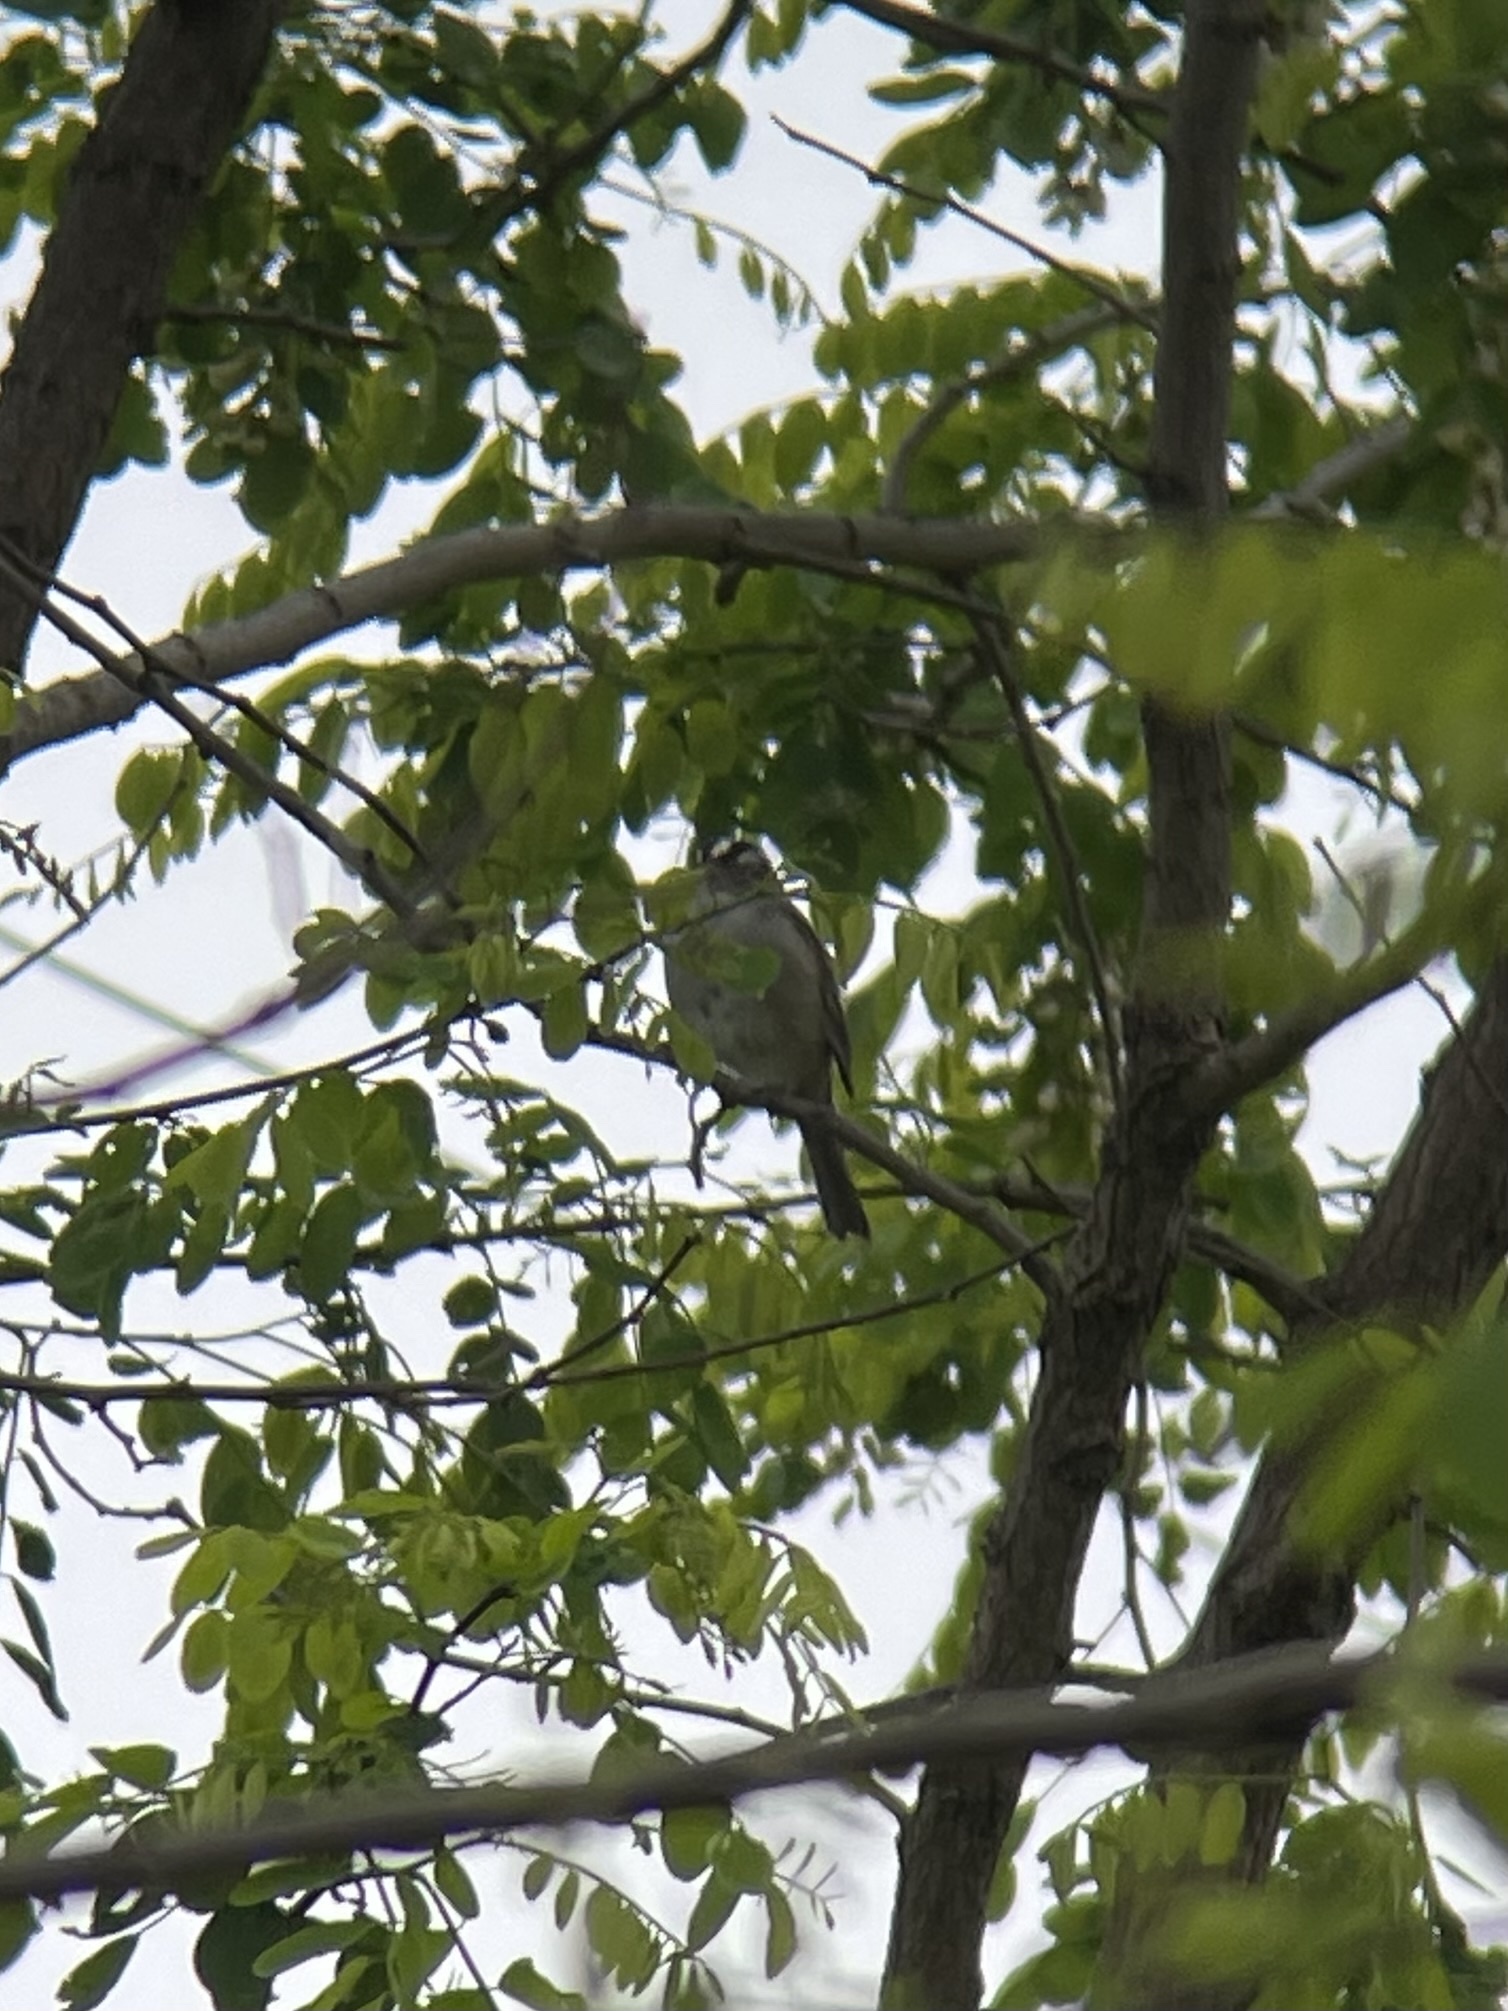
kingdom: Animalia
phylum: Chordata
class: Aves
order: Passeriformes
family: Passerellidae
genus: Zonotrichia
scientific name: Zonotrichia leucophrys
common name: White-crowned sparrow
